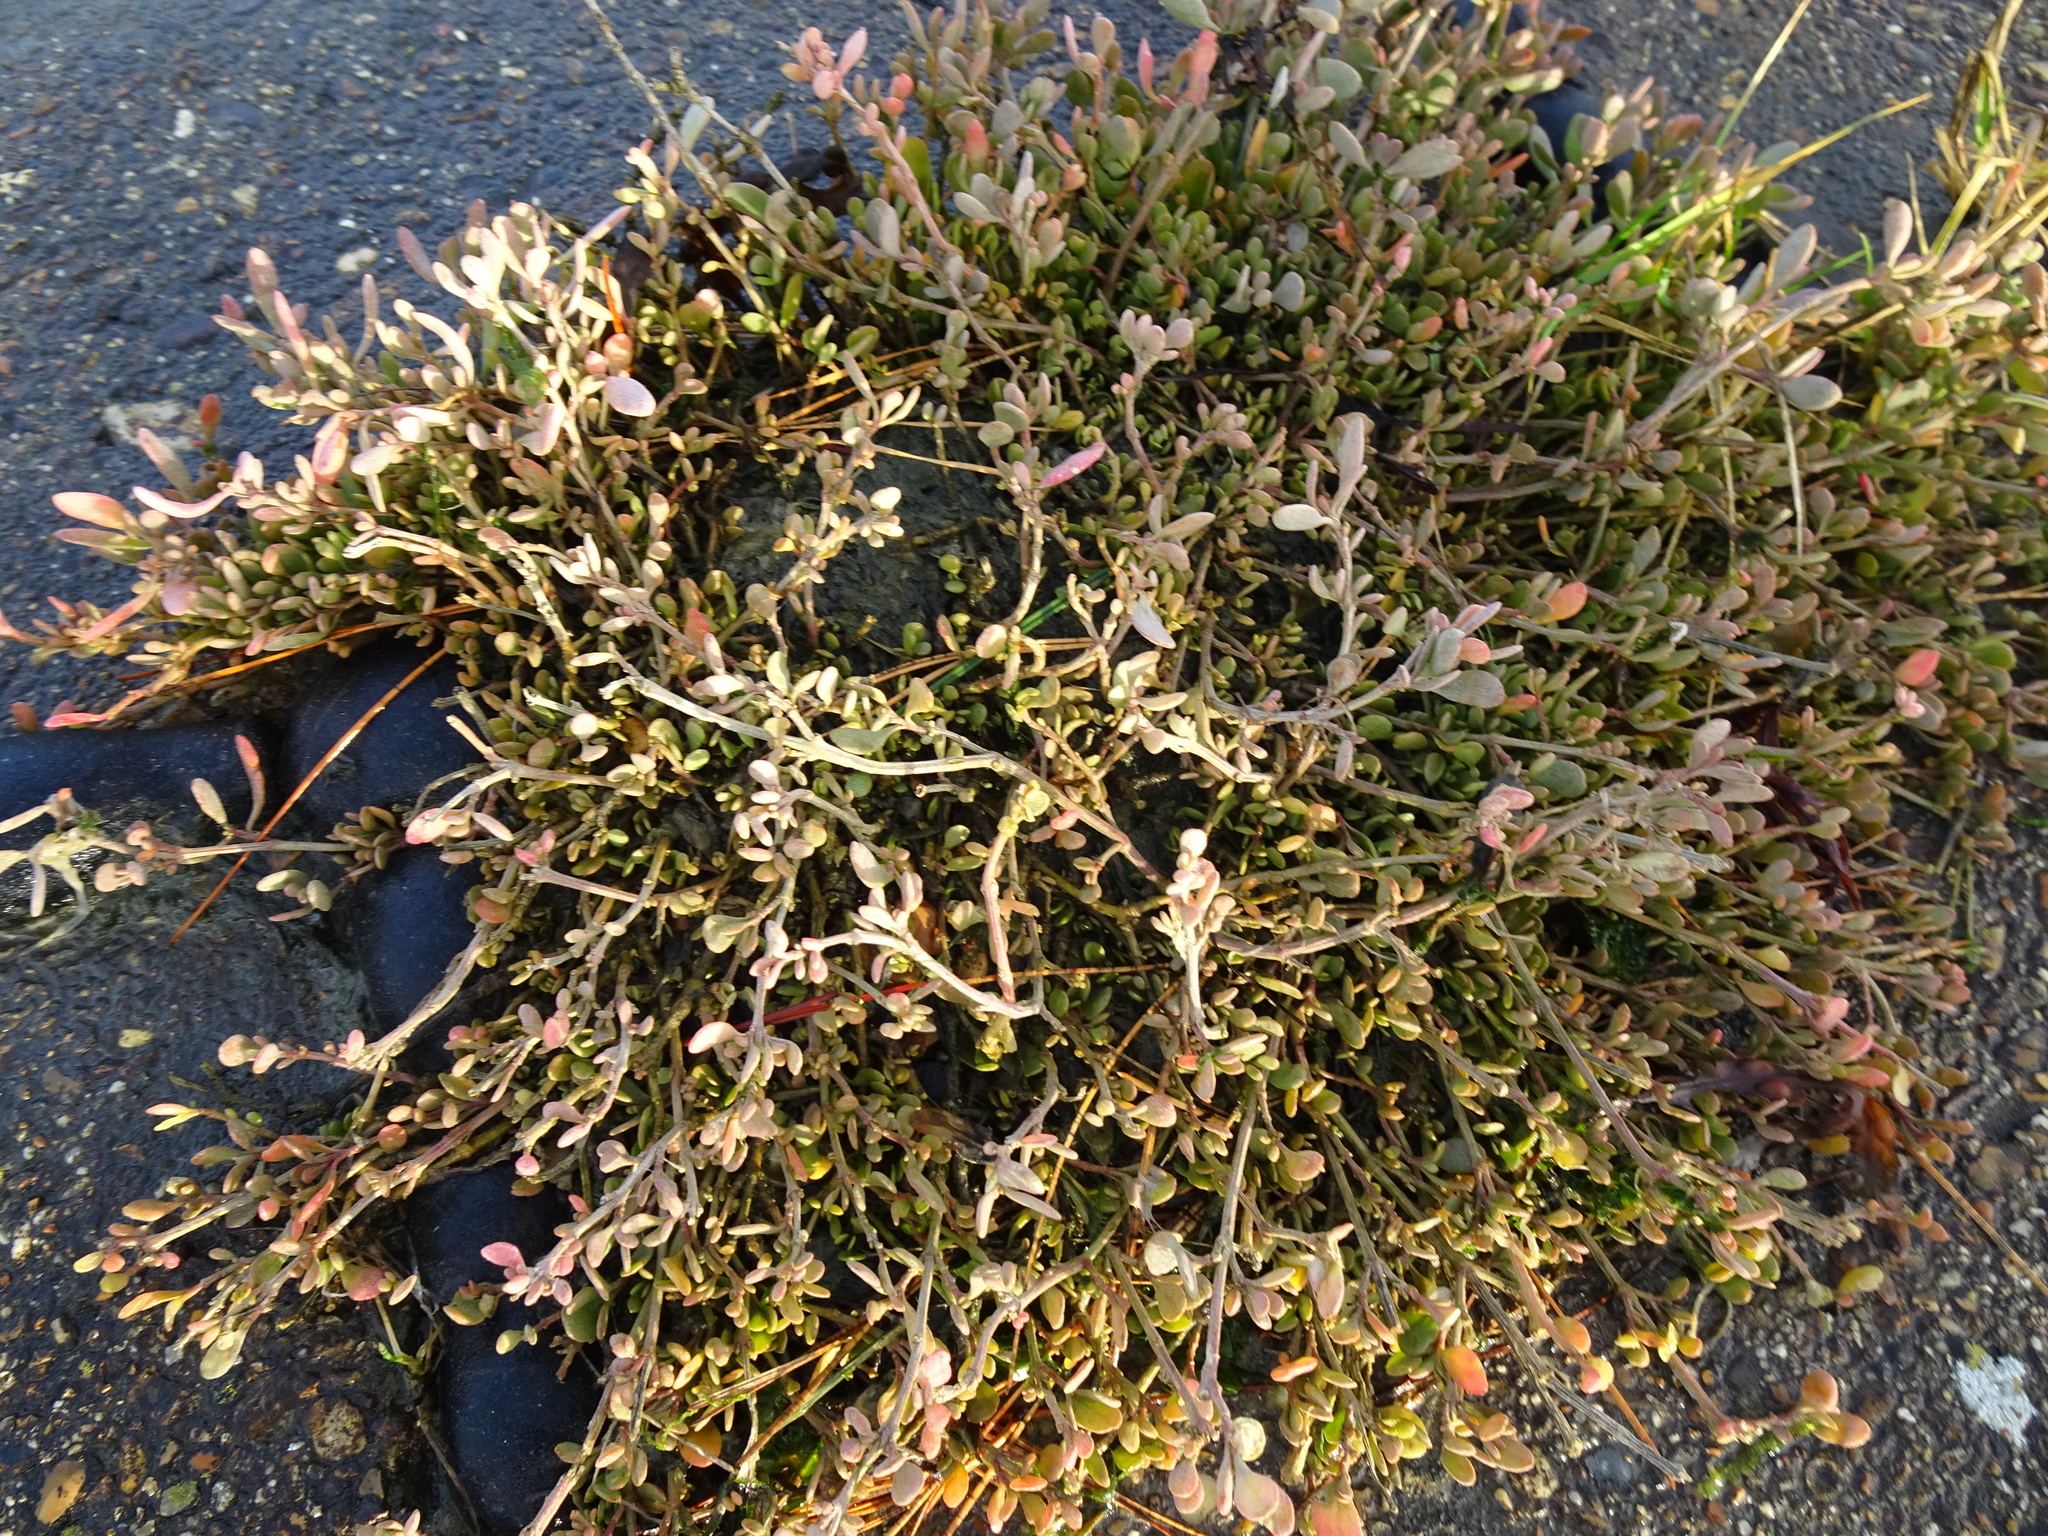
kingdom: Plantae
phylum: Tracheophyta
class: Magnoliopsida
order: Caryophyllales
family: Amaranthaceae
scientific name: Amaranthaceae
